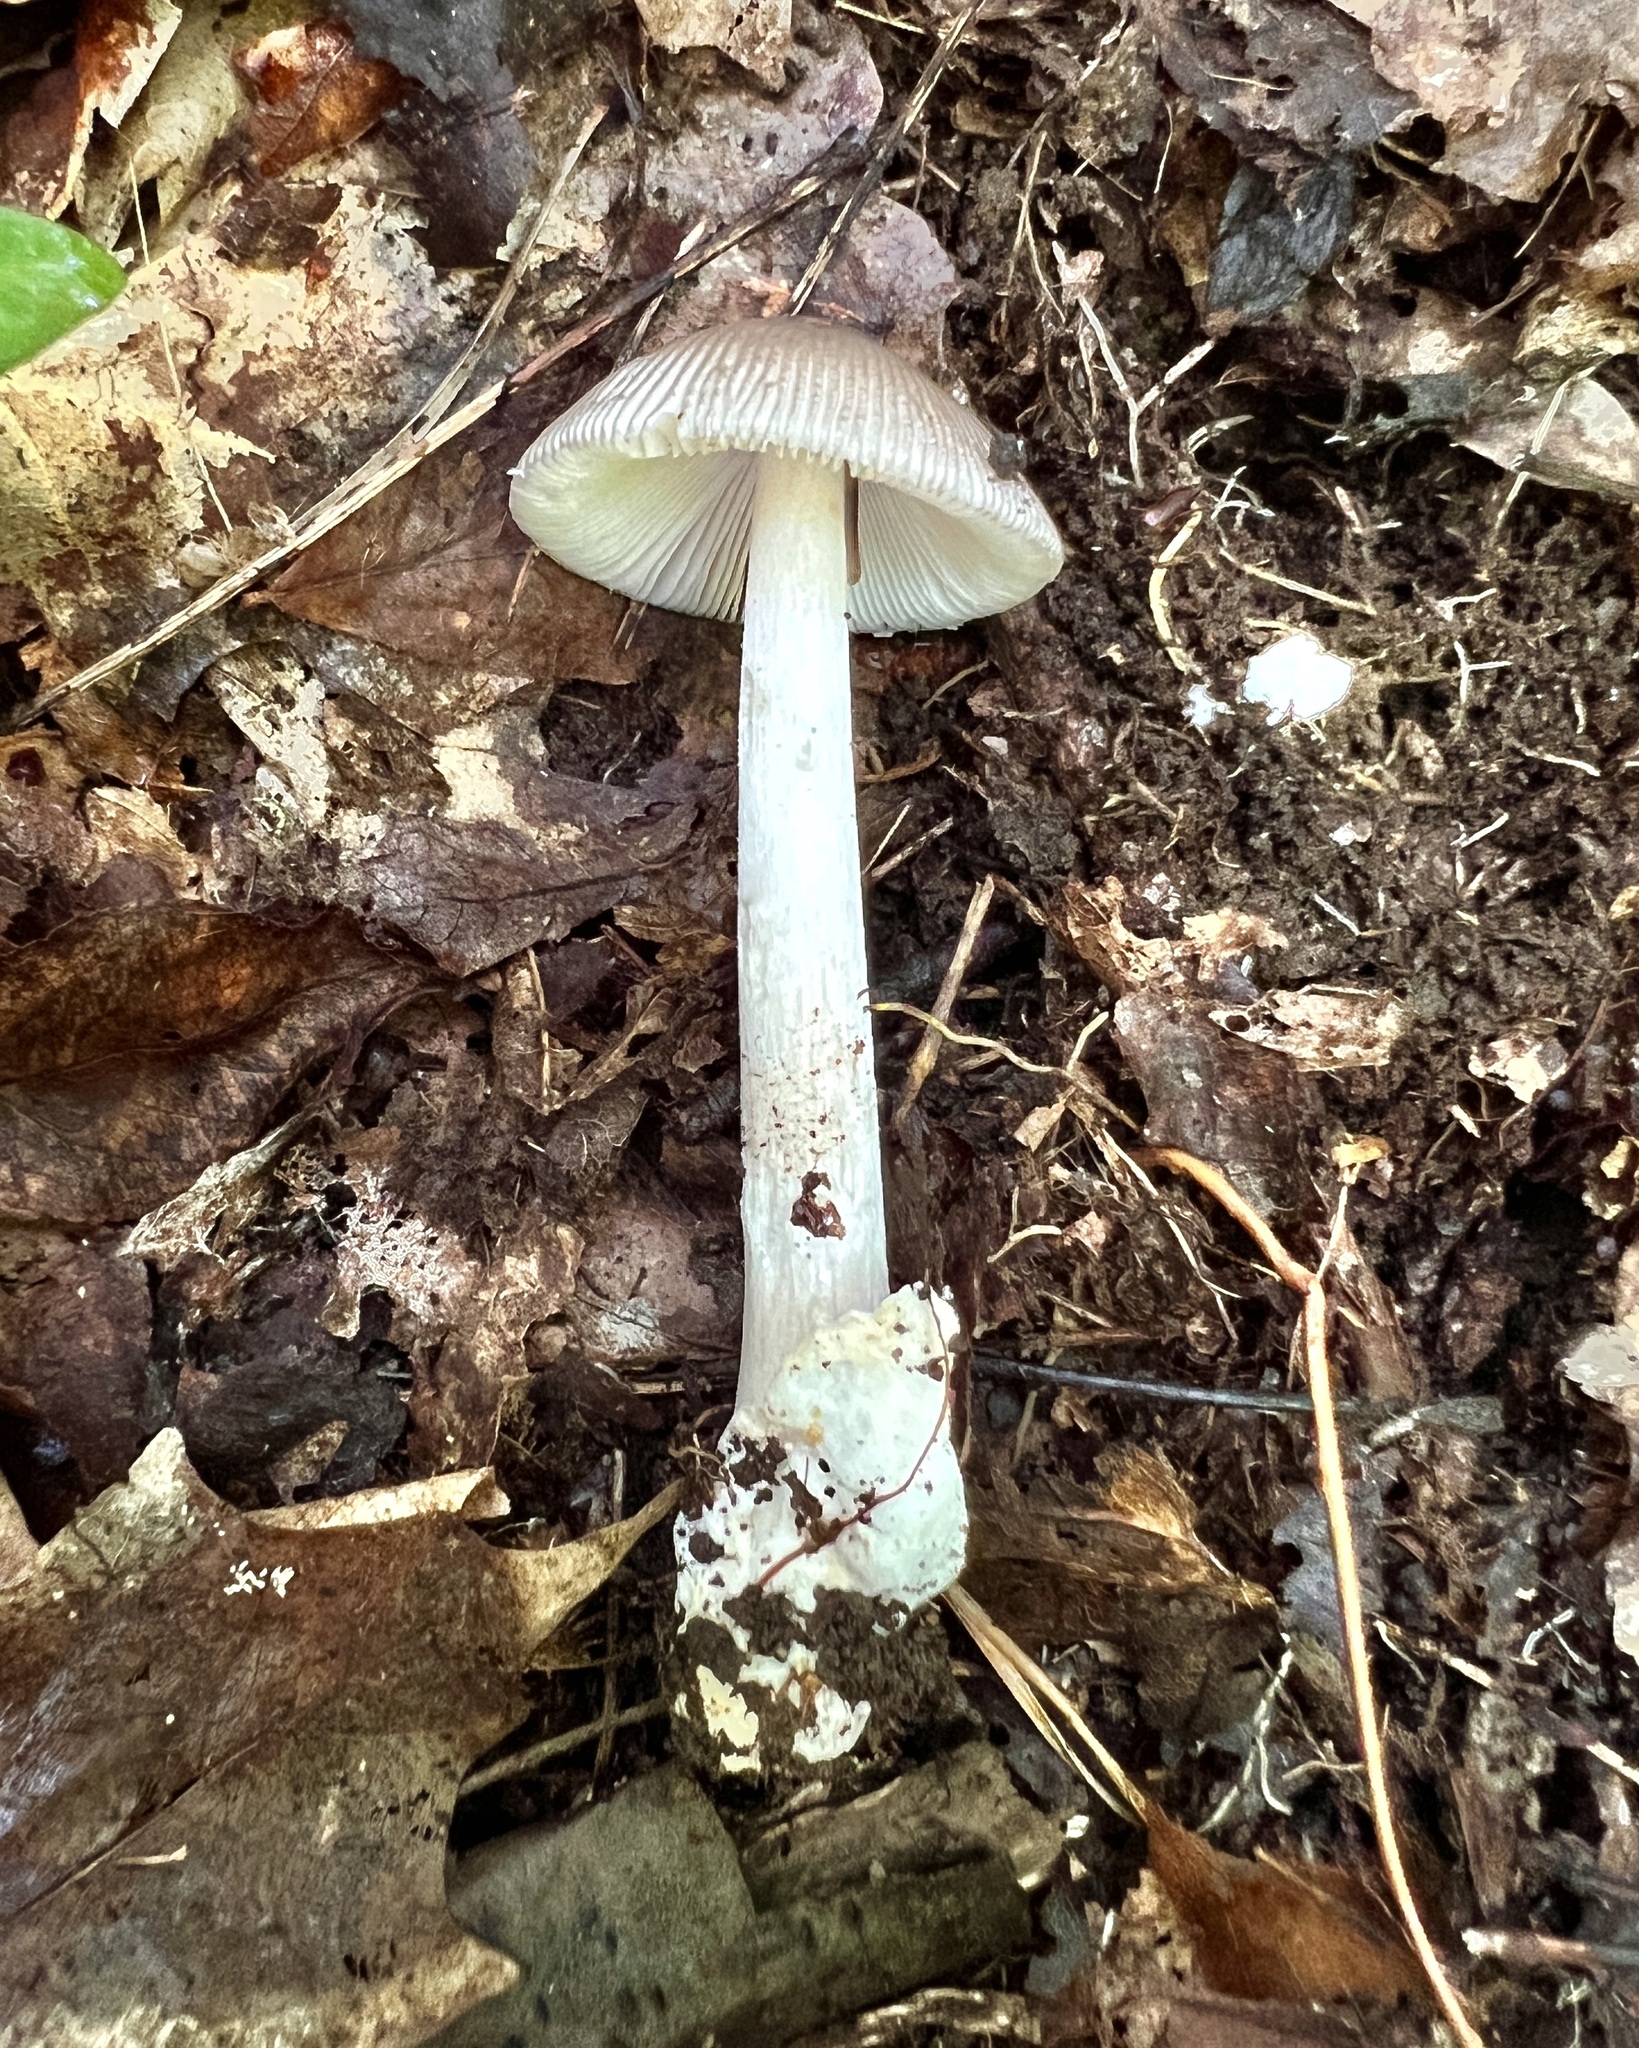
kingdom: Fungi
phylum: Basidiomycota
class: Agaricomycetes
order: Agaricales
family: Amanitaceae
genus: Amanita
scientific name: Amanita vaginata
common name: Grisette
